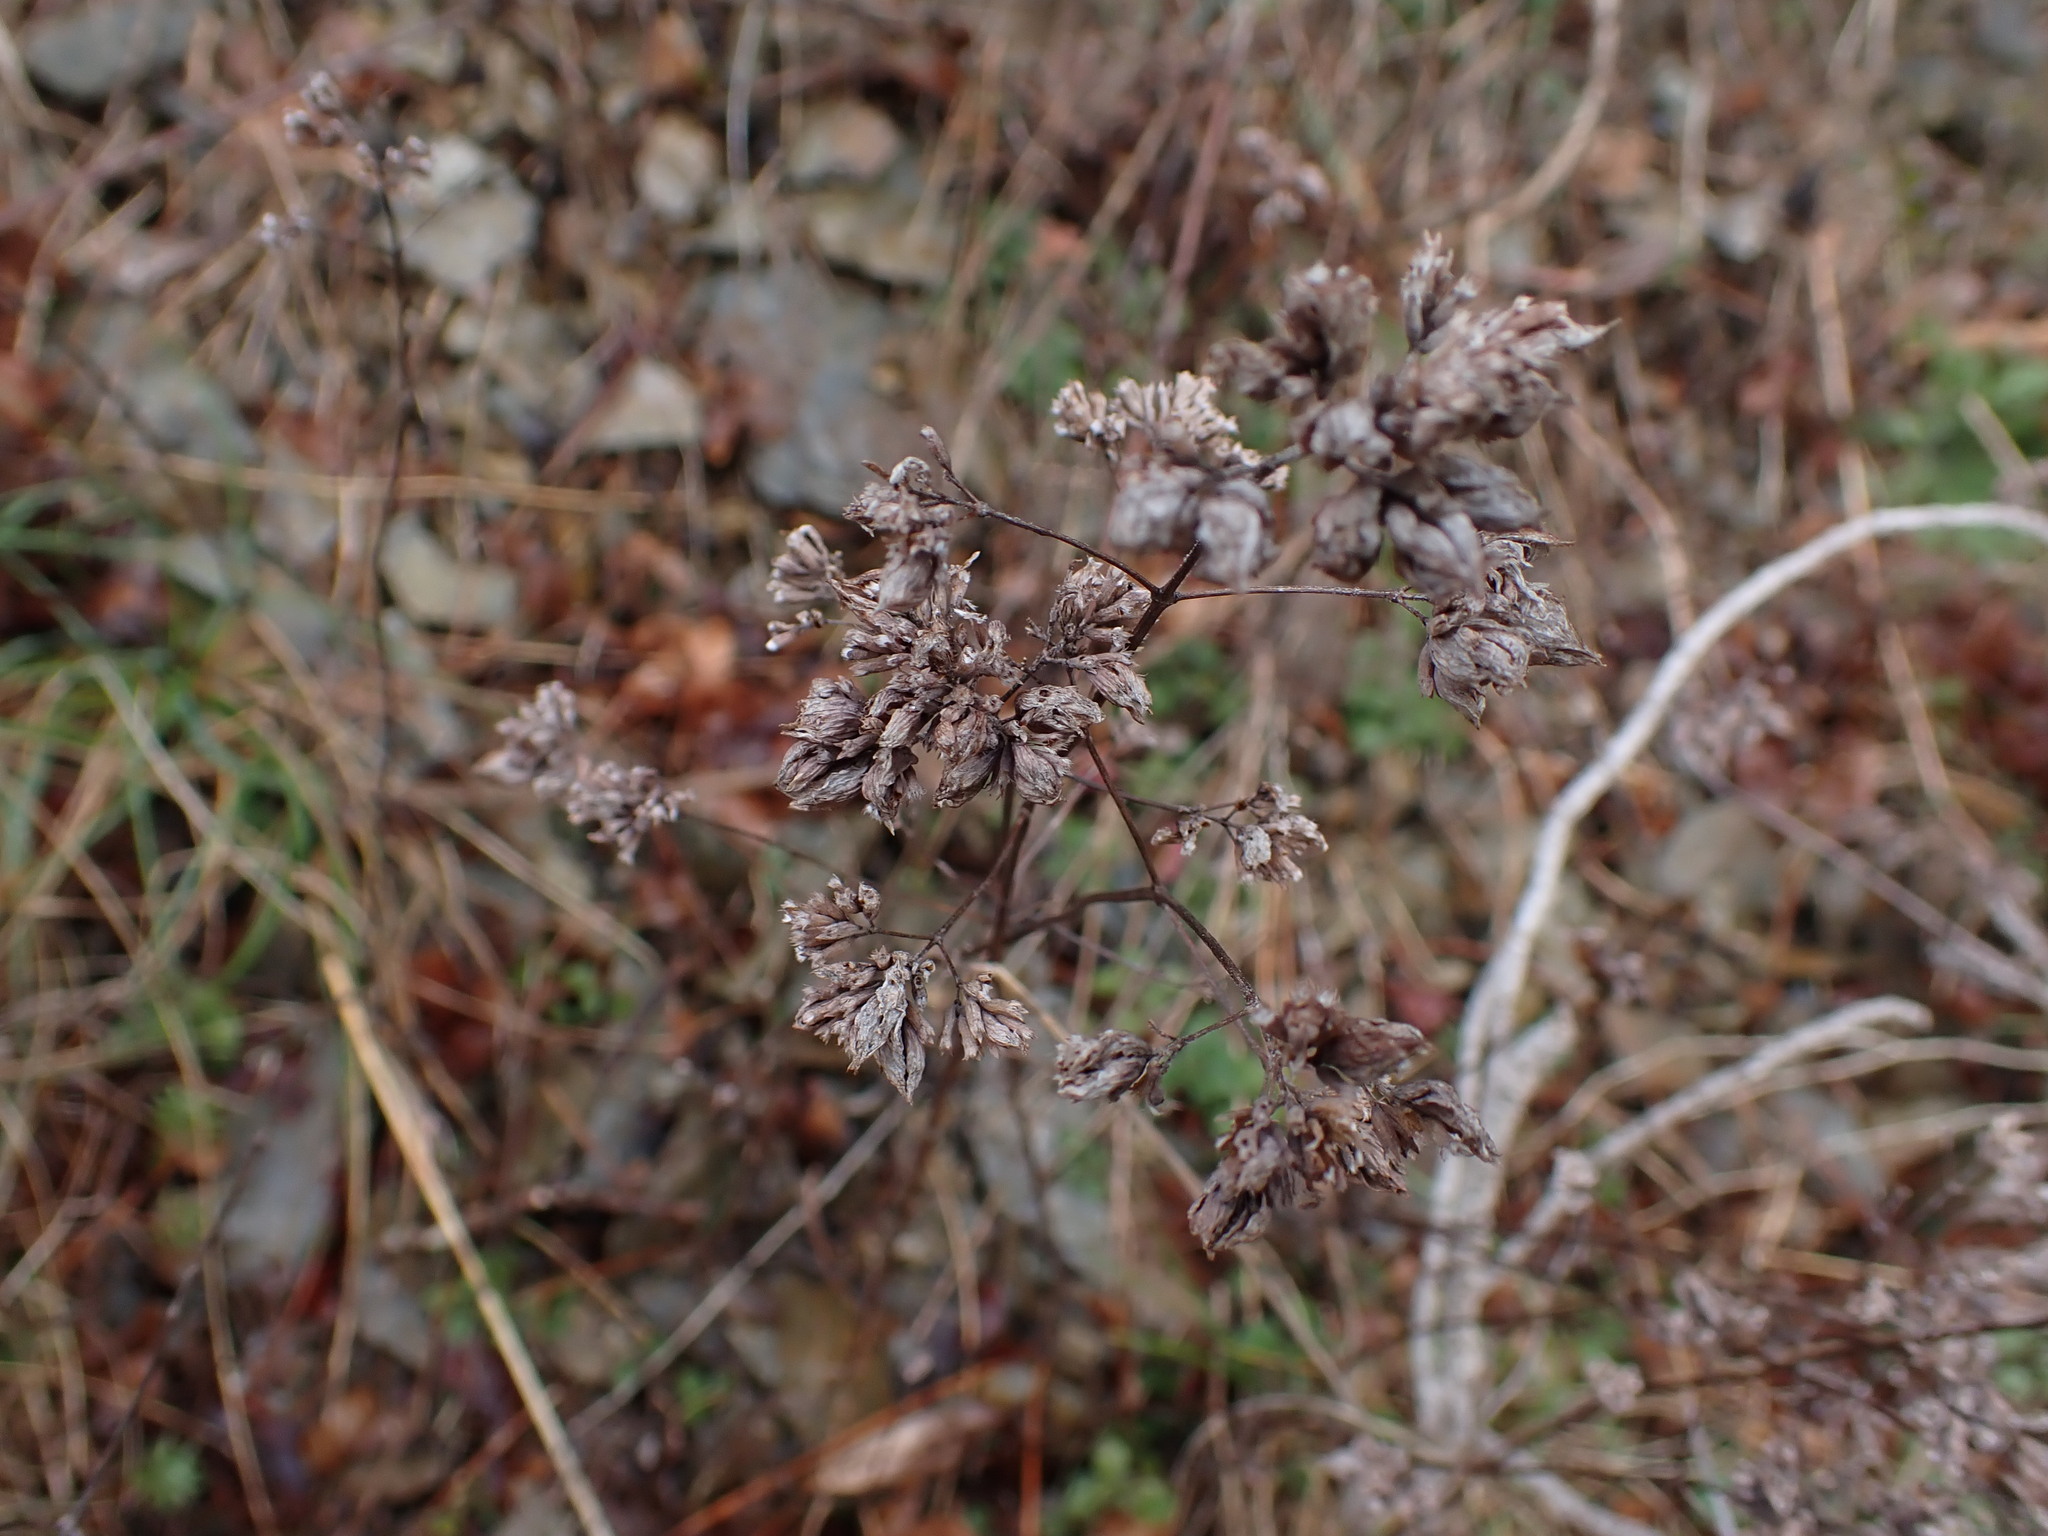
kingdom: Plantae
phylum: Tracheophyta
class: Magnoliopsida
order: Lamiales
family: Lamiaceae
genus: Origanum
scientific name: Origanum vulgare
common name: Wild marjoram
